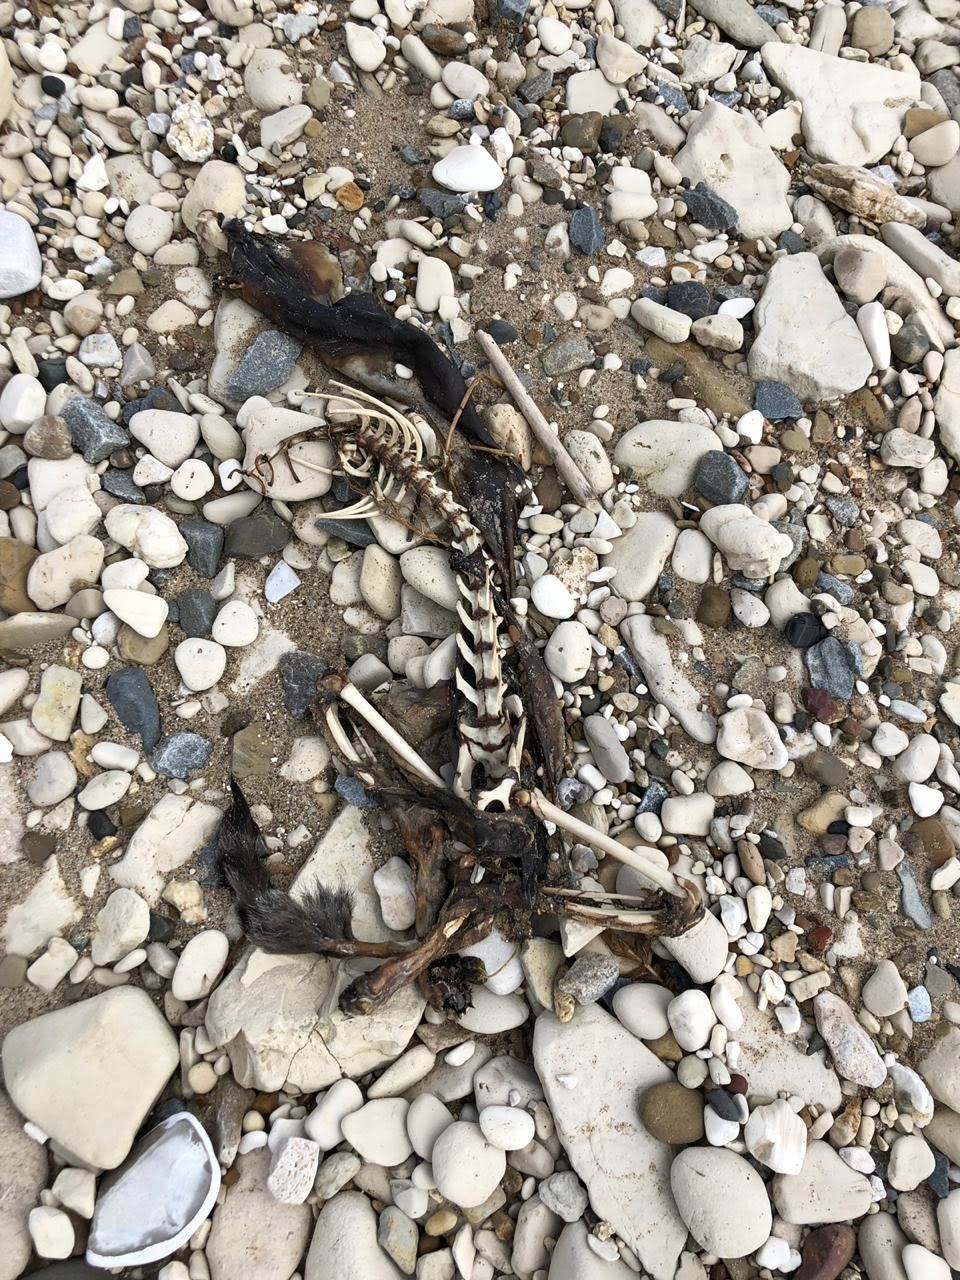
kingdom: Animalia
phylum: Chordata
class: Mammalia
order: Carnivora
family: Canidae
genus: Vulpes
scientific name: Vulpes vulpes
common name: Red fox
